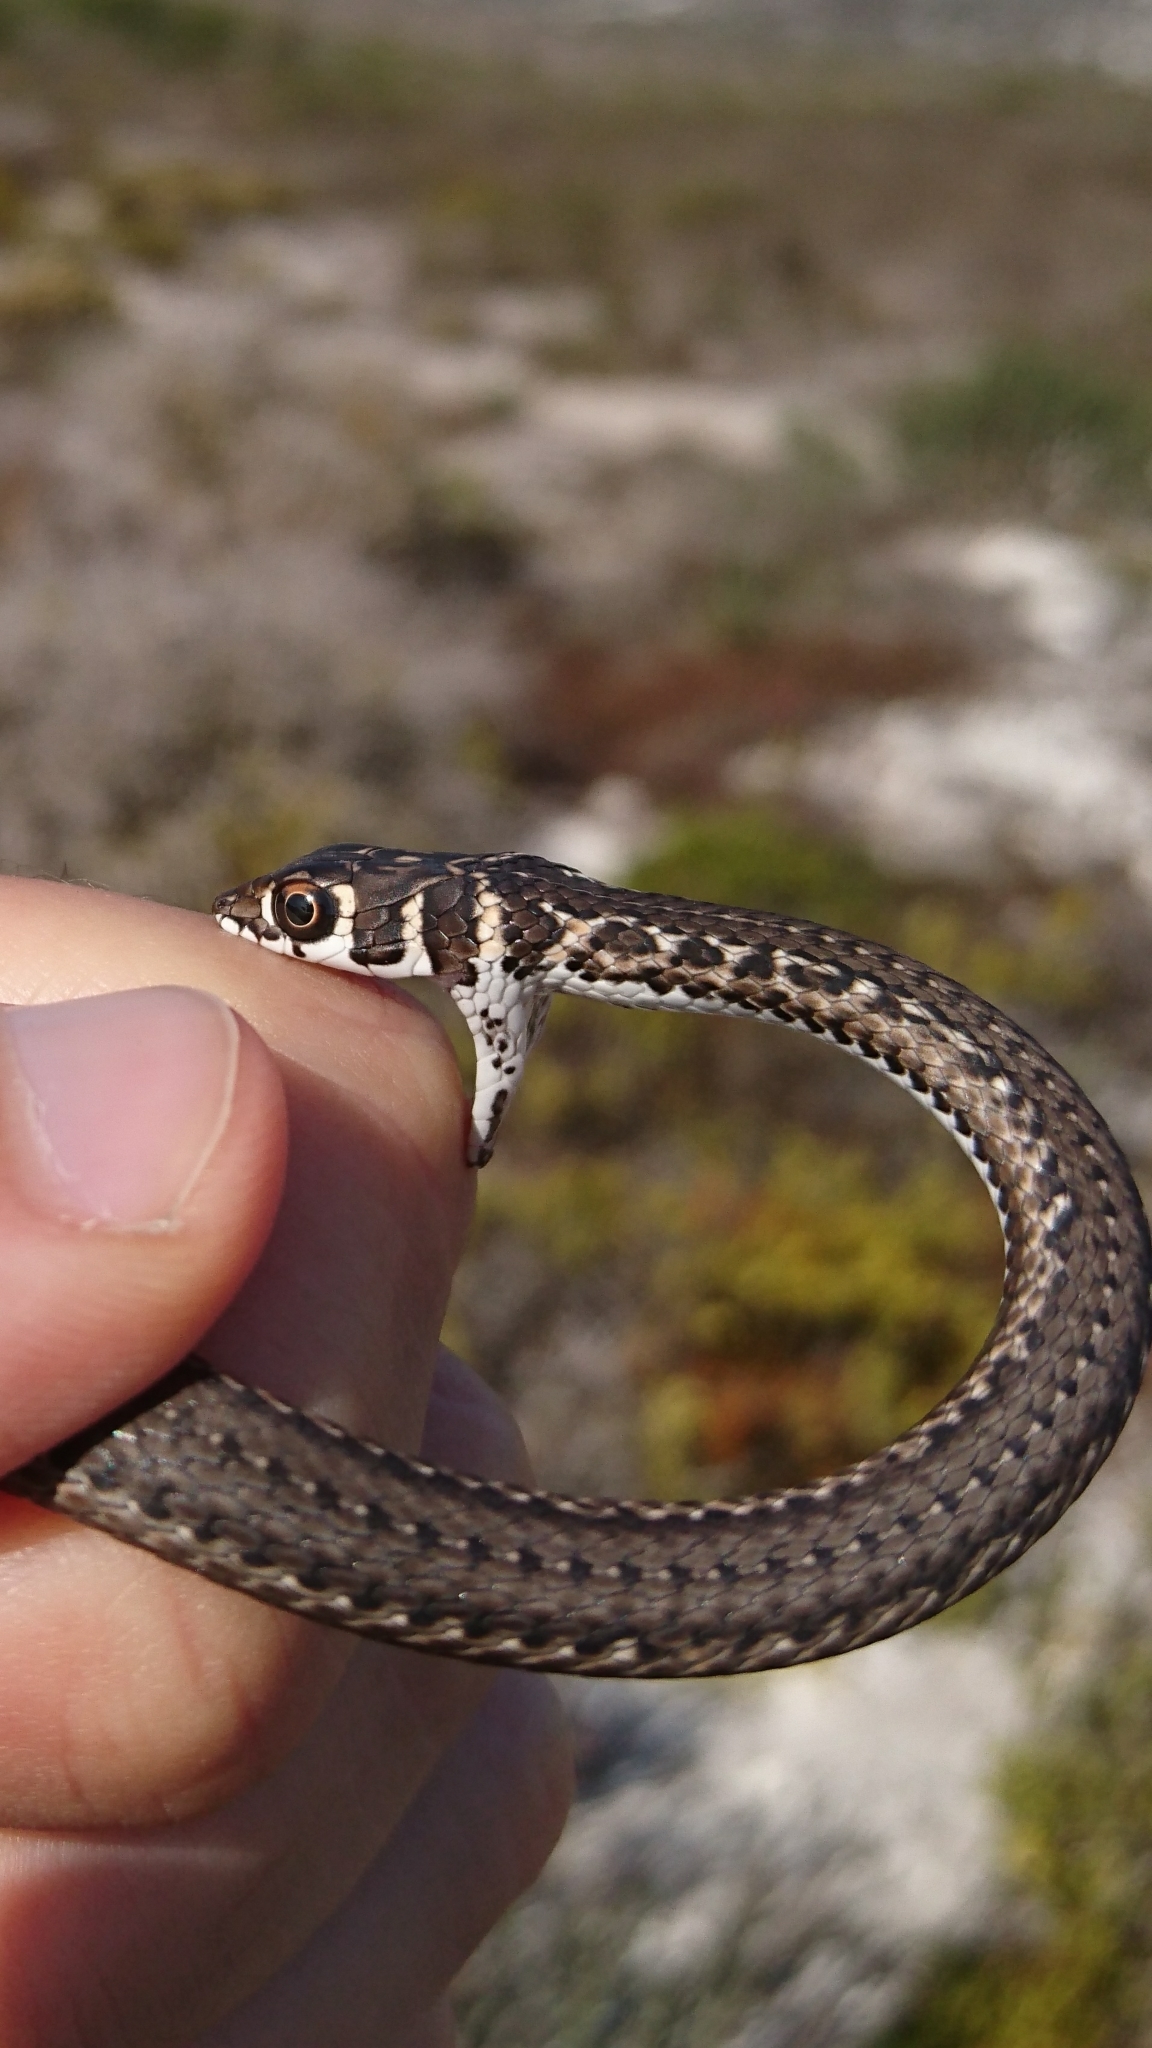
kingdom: Animalia
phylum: Chordata
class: Squamata
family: Psammophiidae
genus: Psammophis
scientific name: Psammophis leightoni
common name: Cape sand snake
